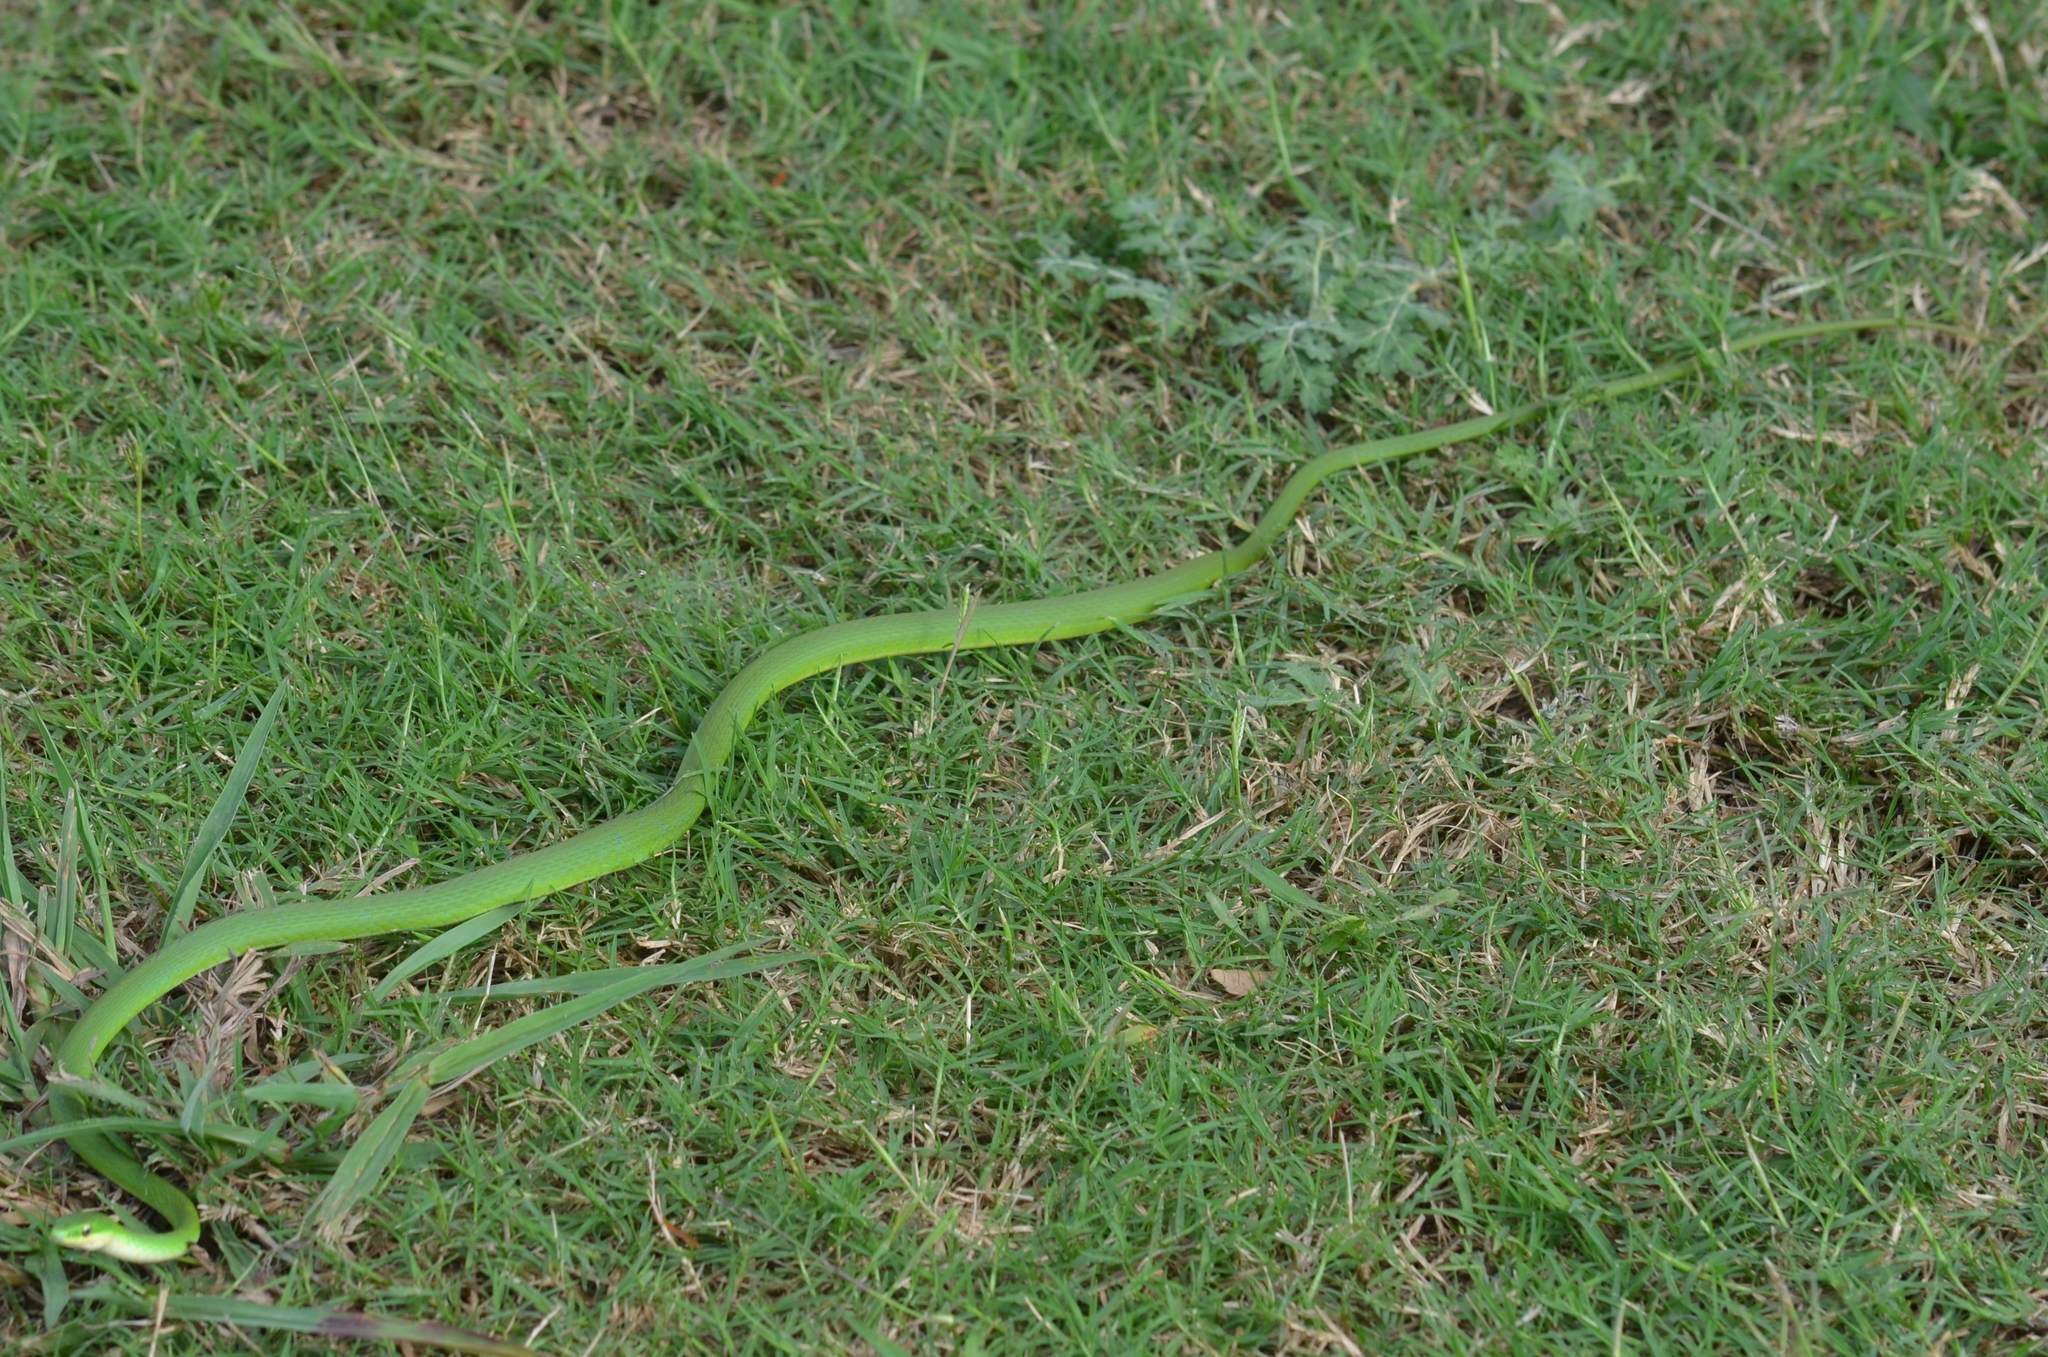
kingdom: Animalia
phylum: Chordata
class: Squamata
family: Colubridae
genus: Opheodrys
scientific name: Opheodrys aestivus
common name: Rough greensnake
